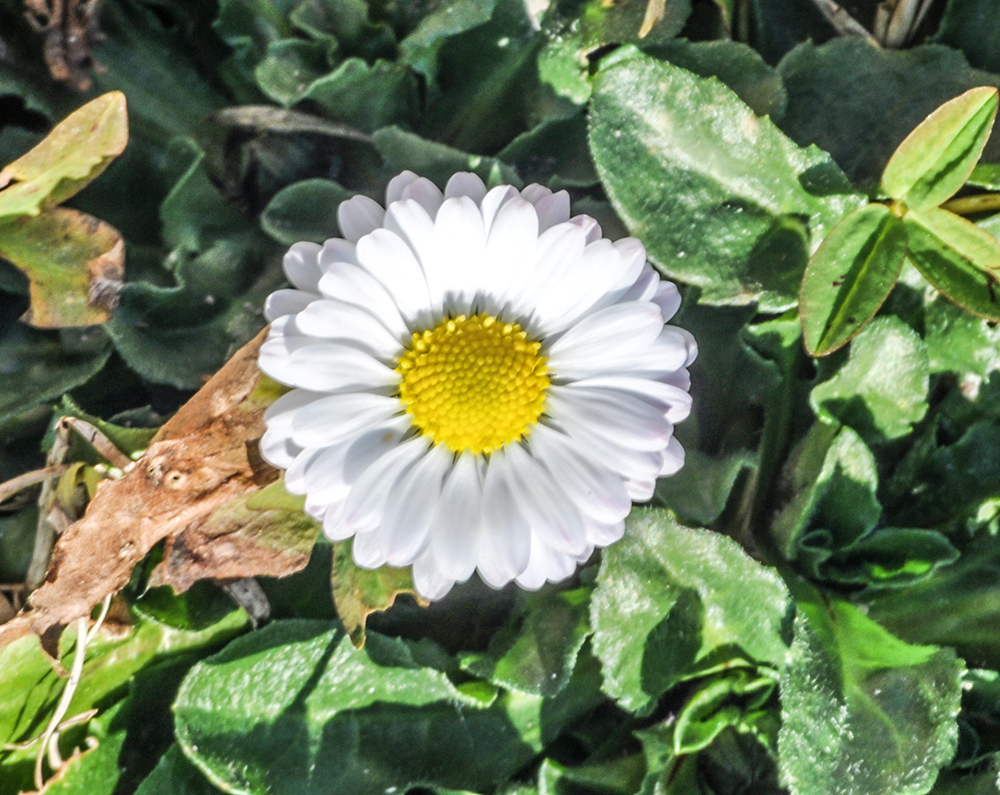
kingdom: Plantae
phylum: Tracheophyta
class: Magnoliopsida
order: Asterales
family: Asteraceae
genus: Bellis
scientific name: Bellis perennis
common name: Lawndaisy
